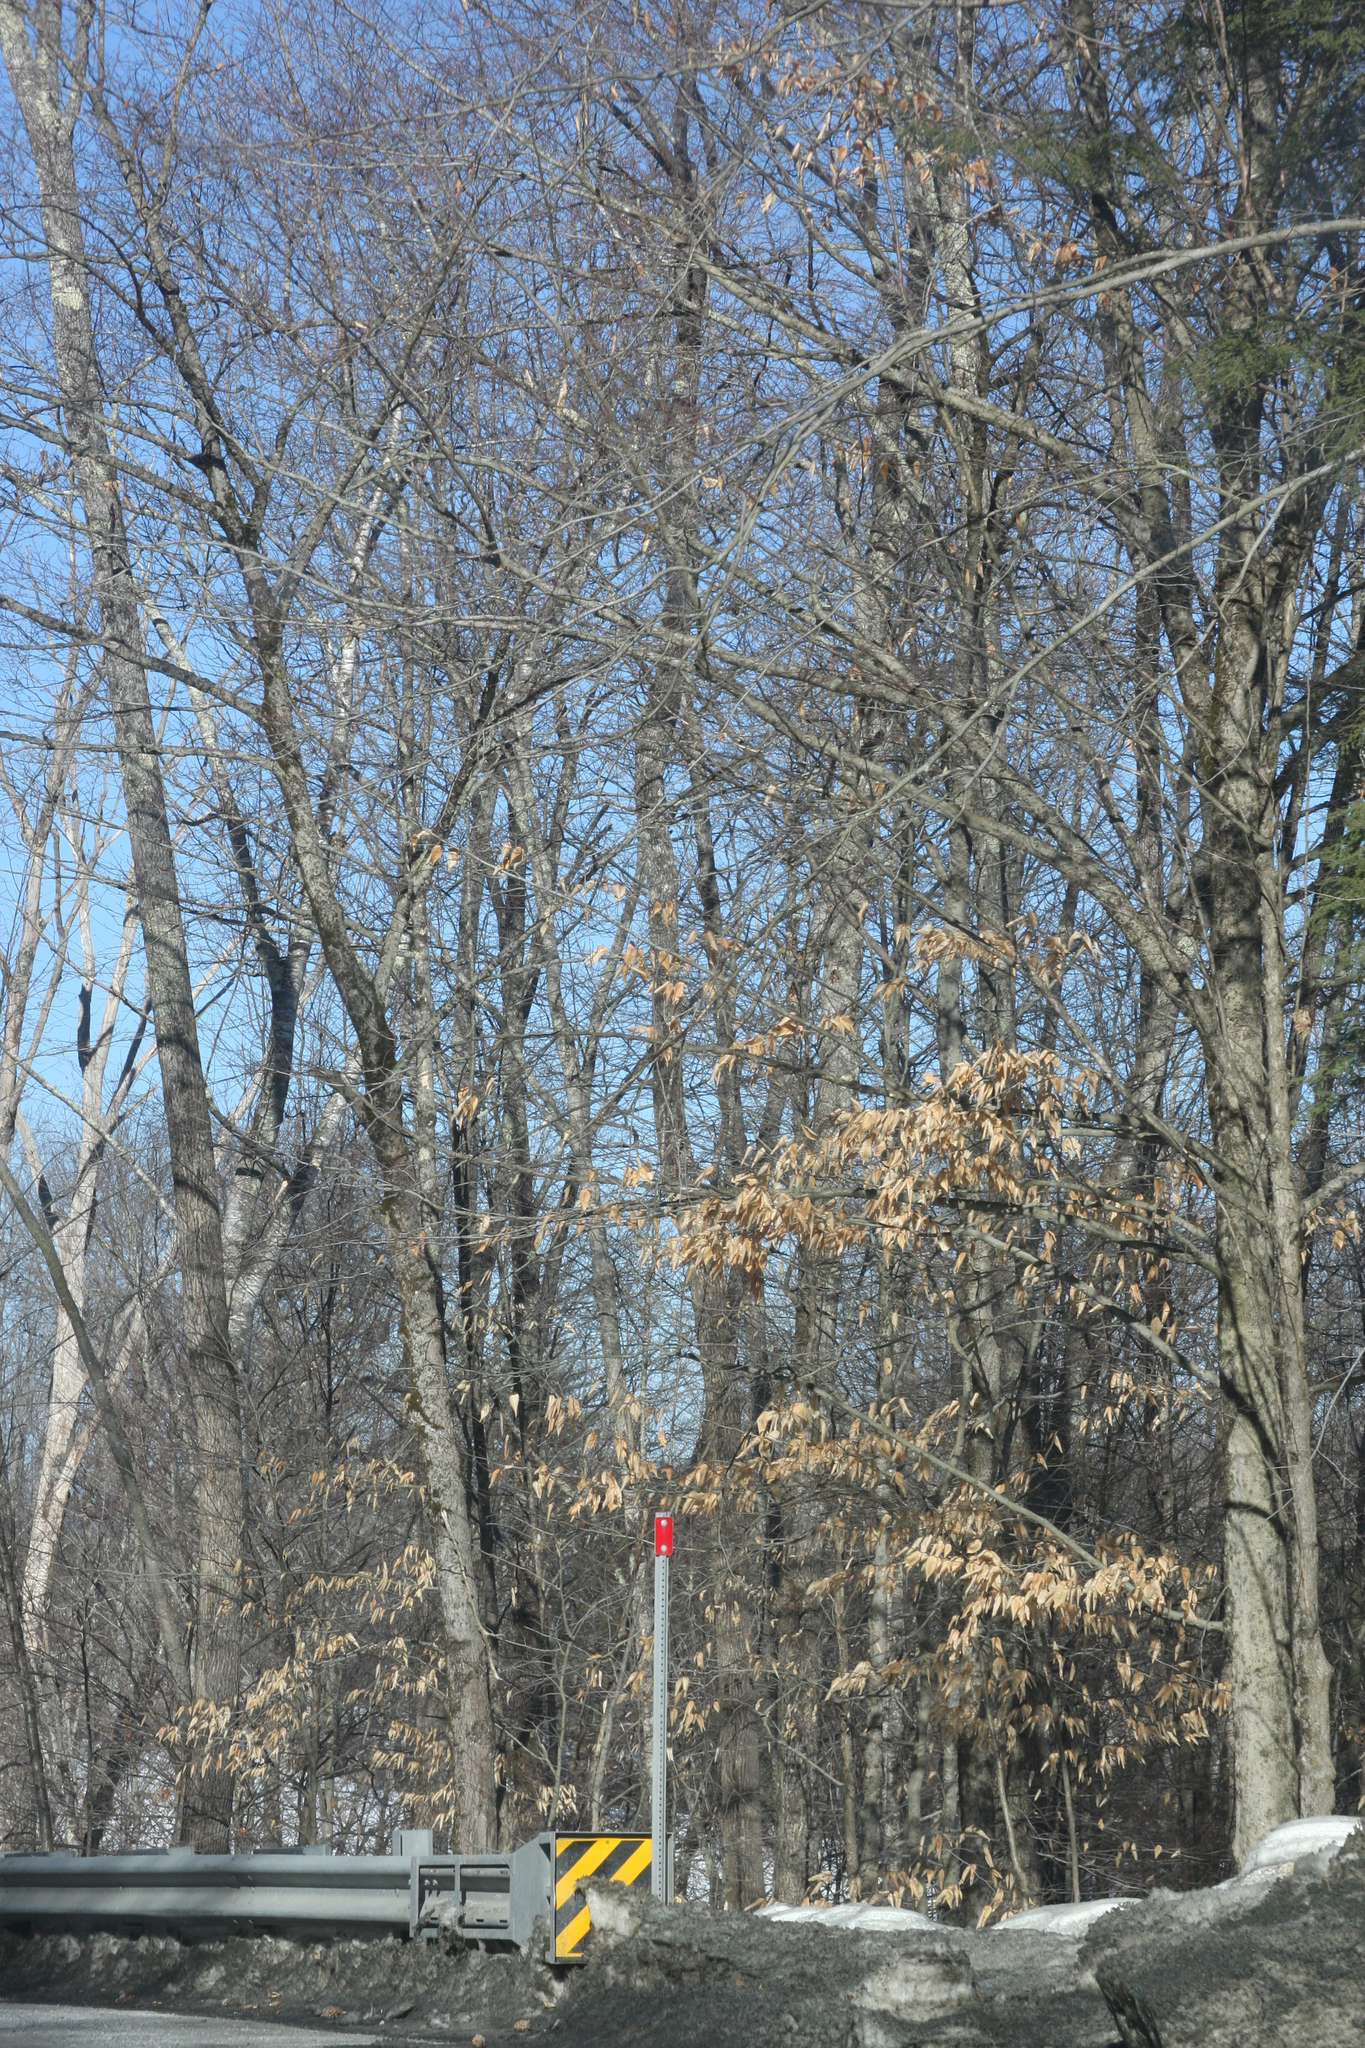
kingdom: Plantae
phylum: Tracheophyta
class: Magnoliopsida
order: Fagales
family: Fagaceae
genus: Fagus
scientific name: Fagus grandifolia
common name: American beech
